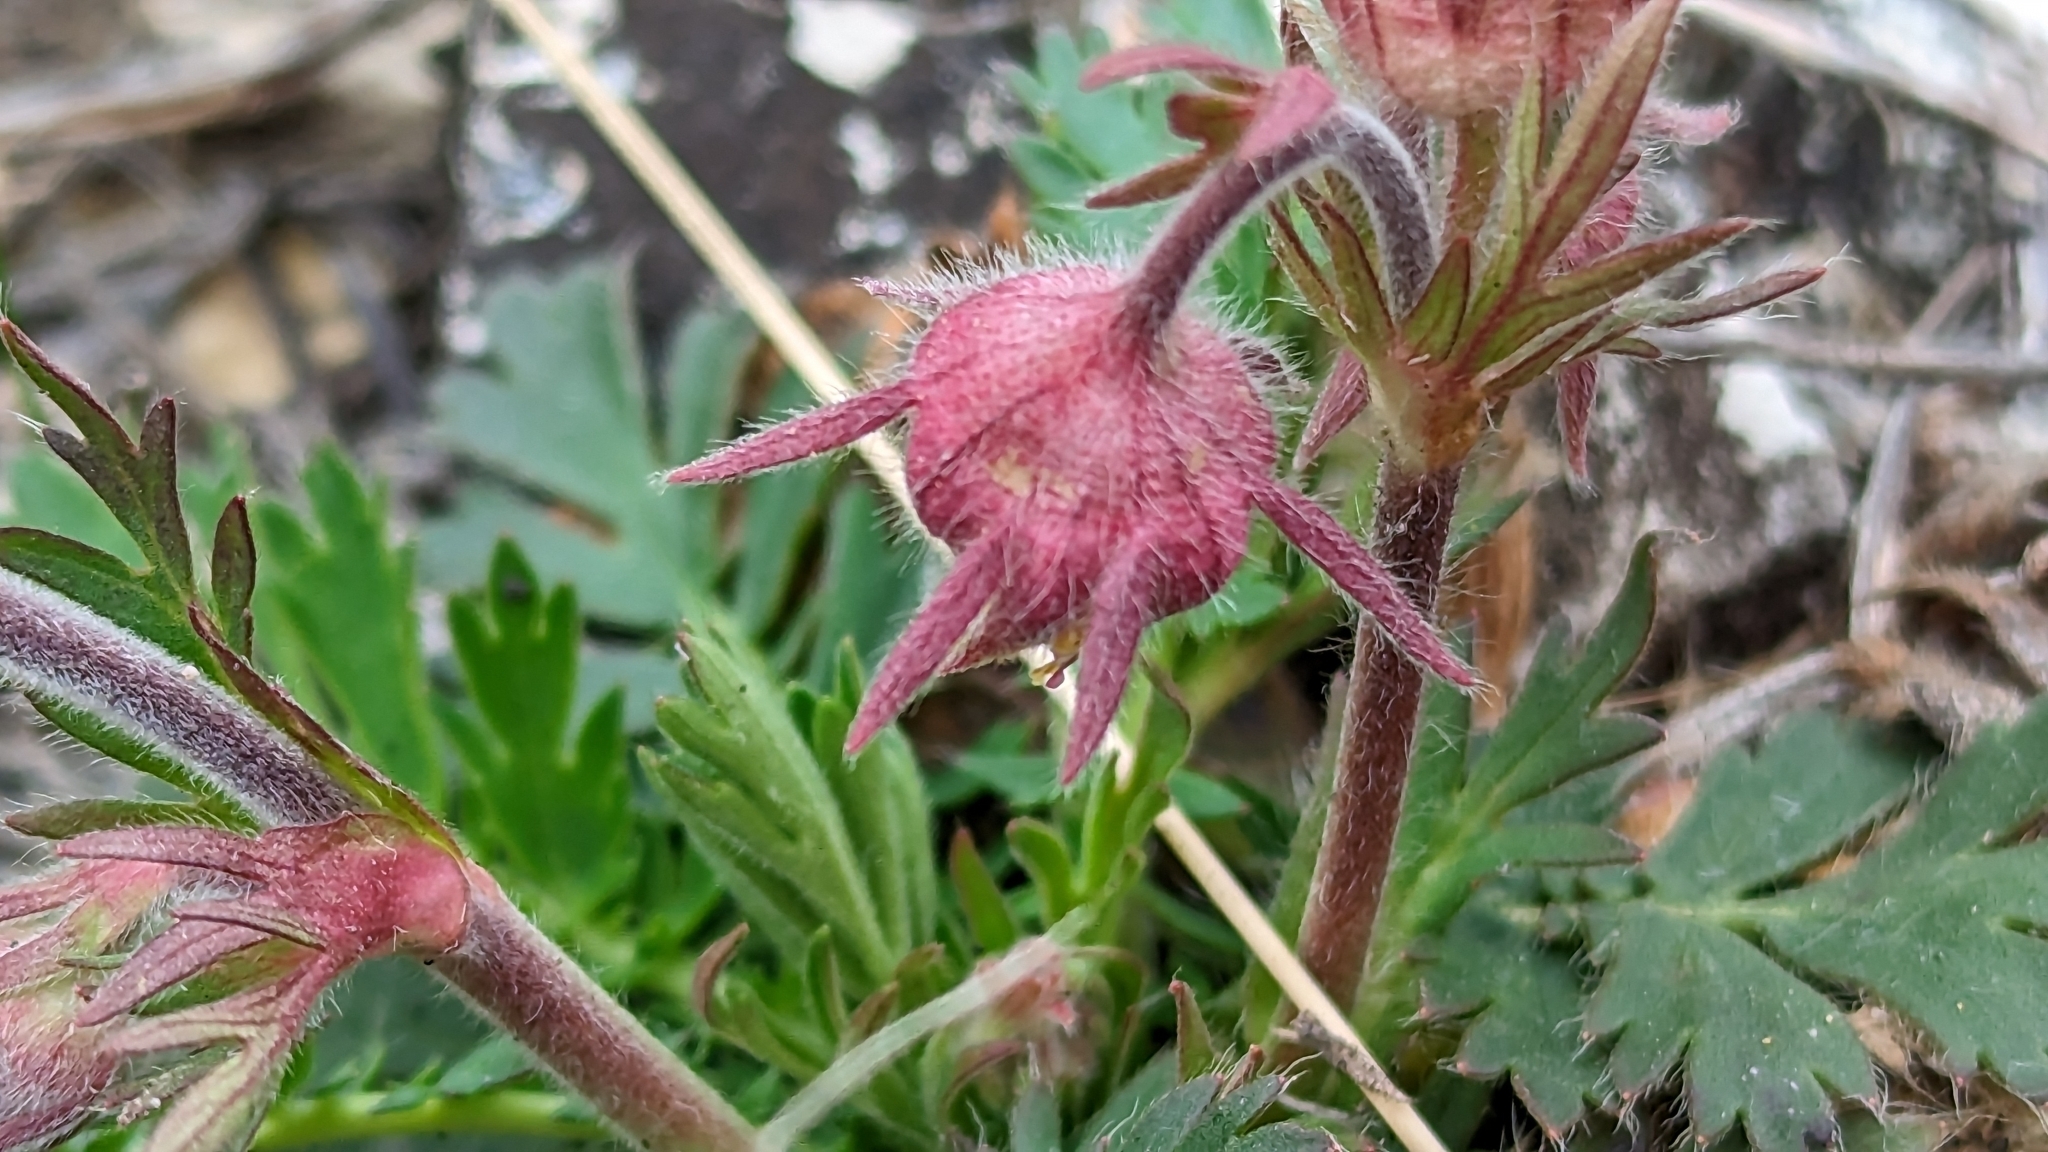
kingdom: Plantae
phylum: Tracheophyta
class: Magnoliopsida
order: Rosales
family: Rosaceae
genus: Geum
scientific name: Geum triflorum
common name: Old man's whiskers
